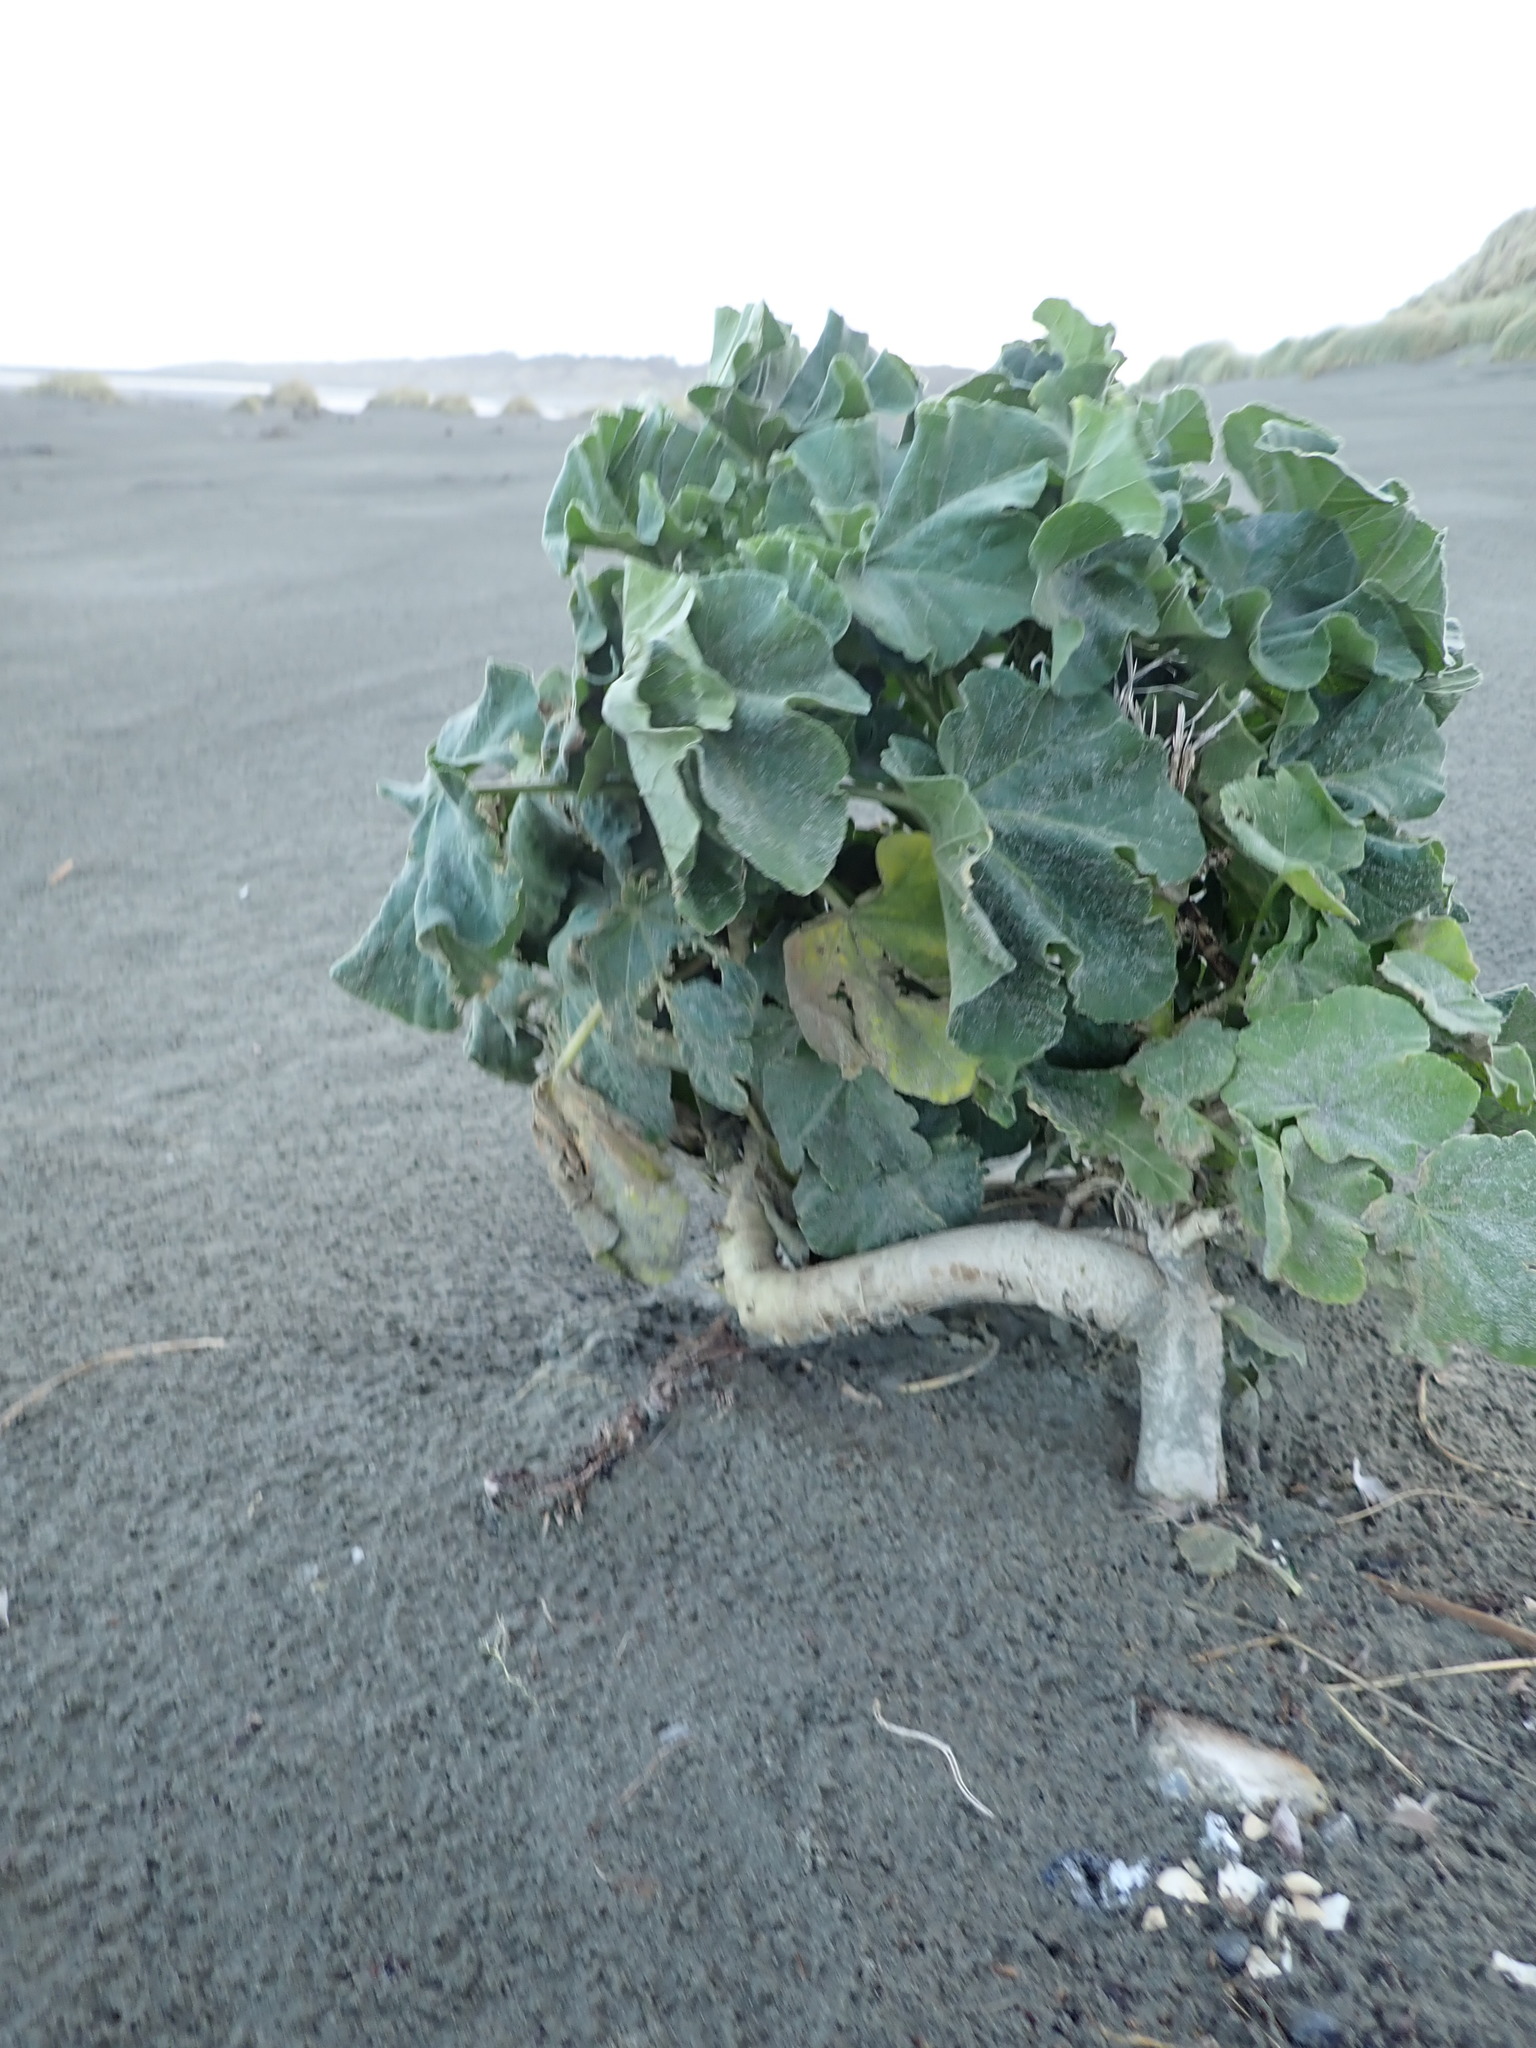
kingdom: Plantae
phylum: Tracheophyta
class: Magnoliopsida
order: Malvales
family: Malvaceae
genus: Malva
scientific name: Malva arborea
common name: Tree mallow
